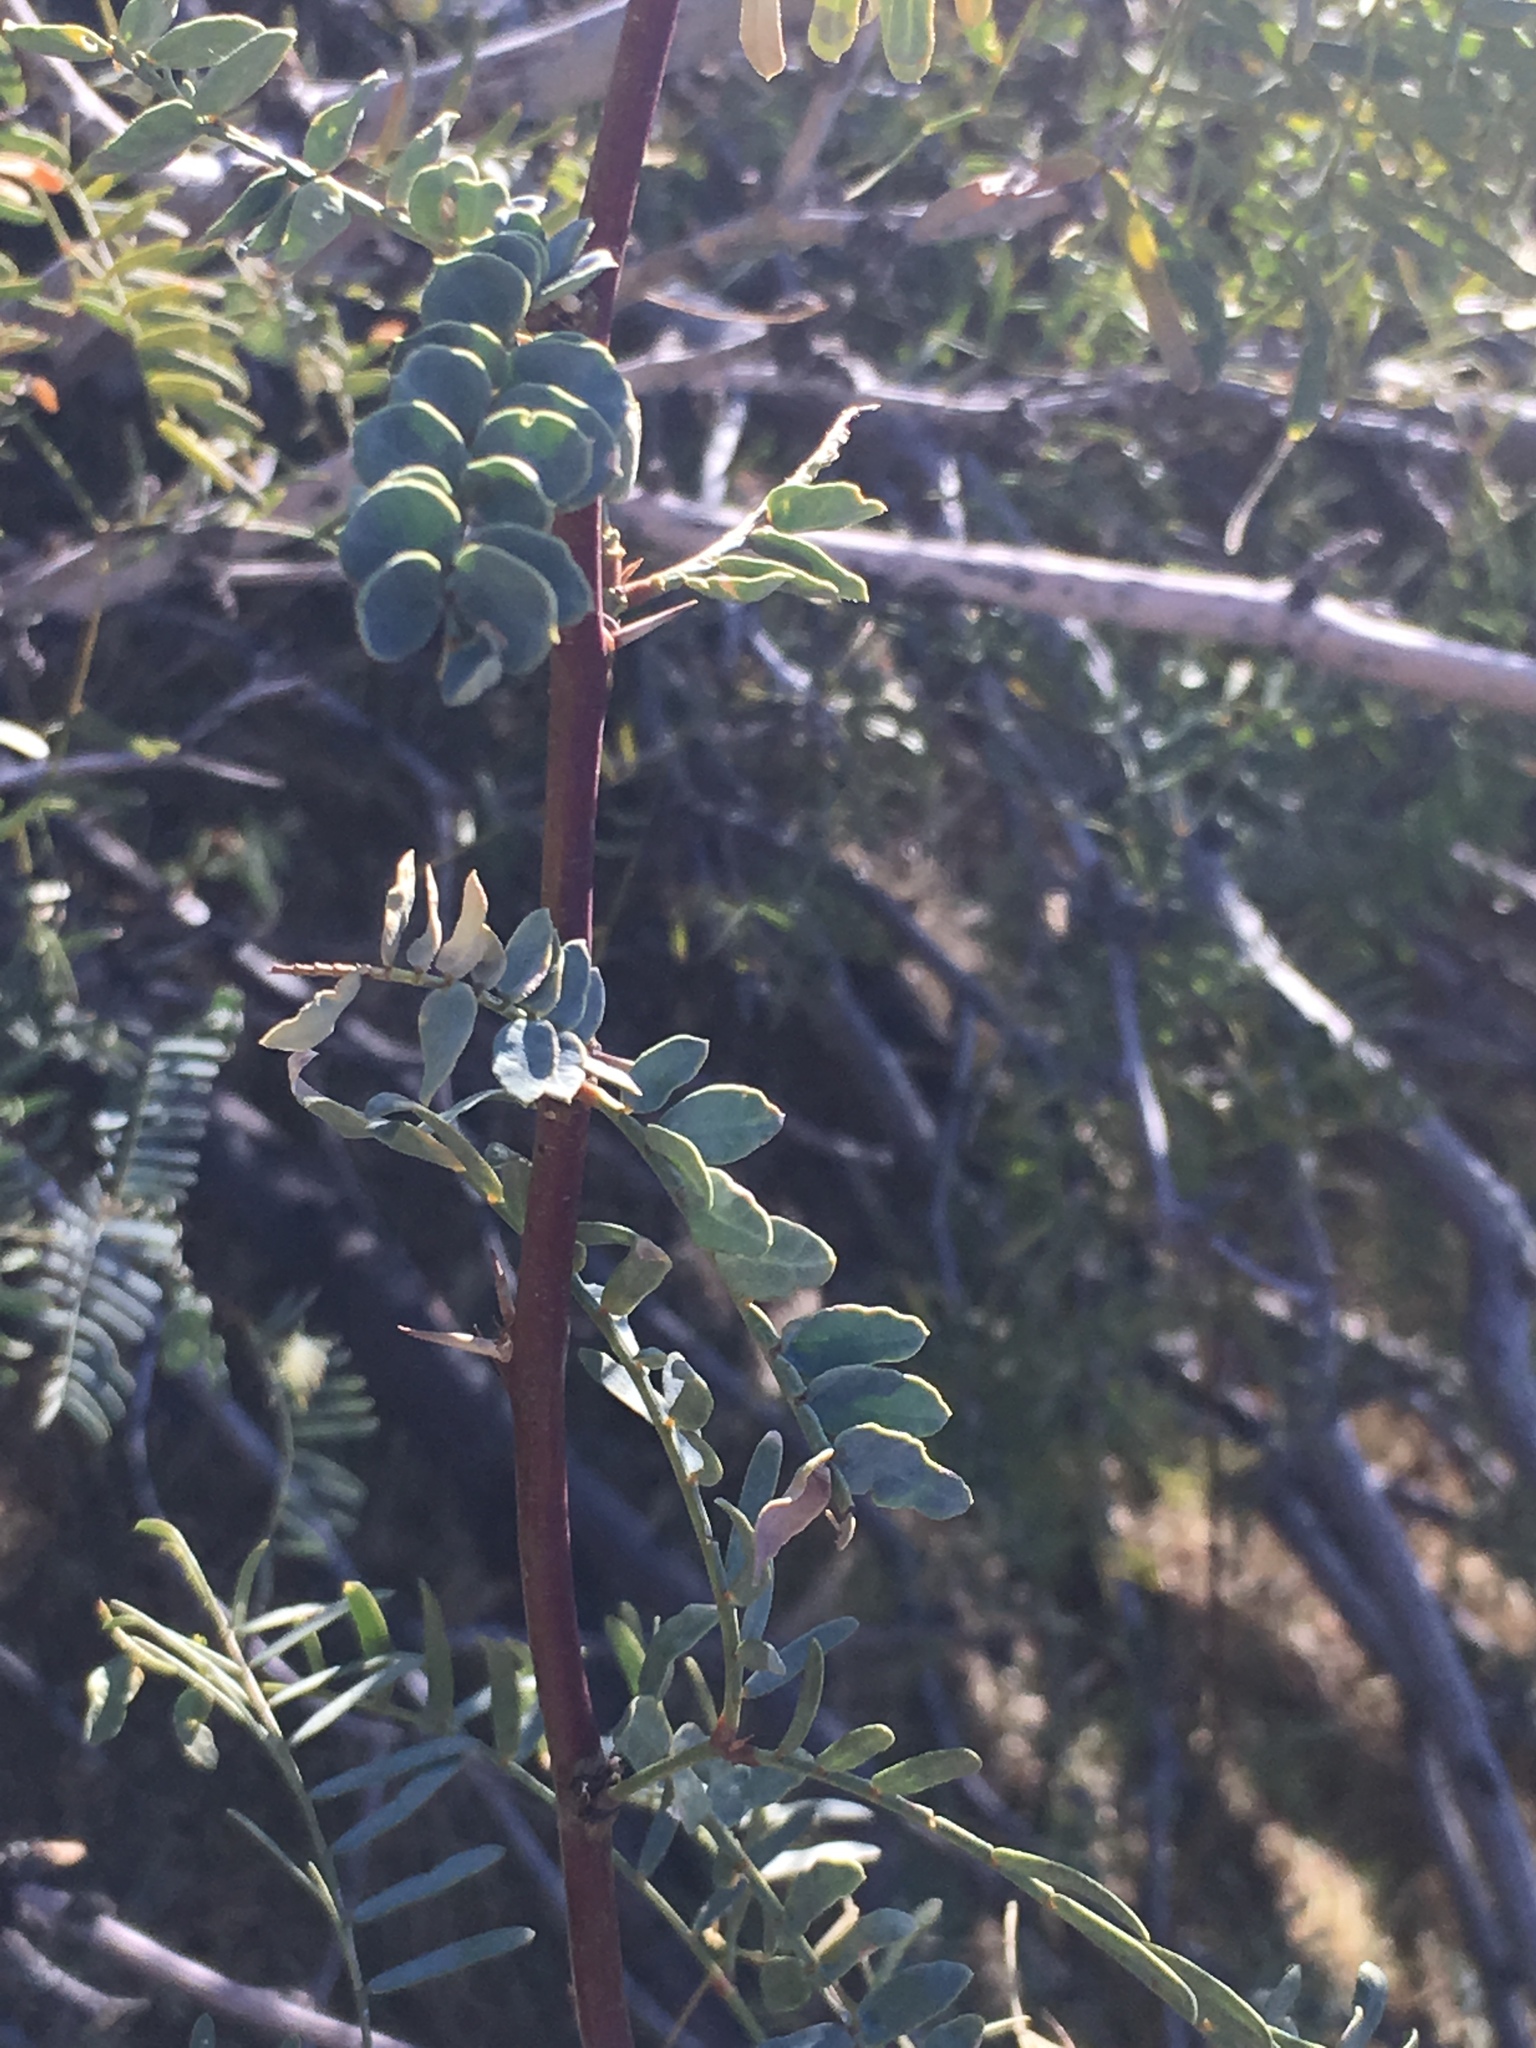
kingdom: Plantae
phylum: Tracheophyta
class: Magnoliopsida
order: Fabales
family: Fabaceae
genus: Prosopis
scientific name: Prosopis pubescens
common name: Screw-bean
